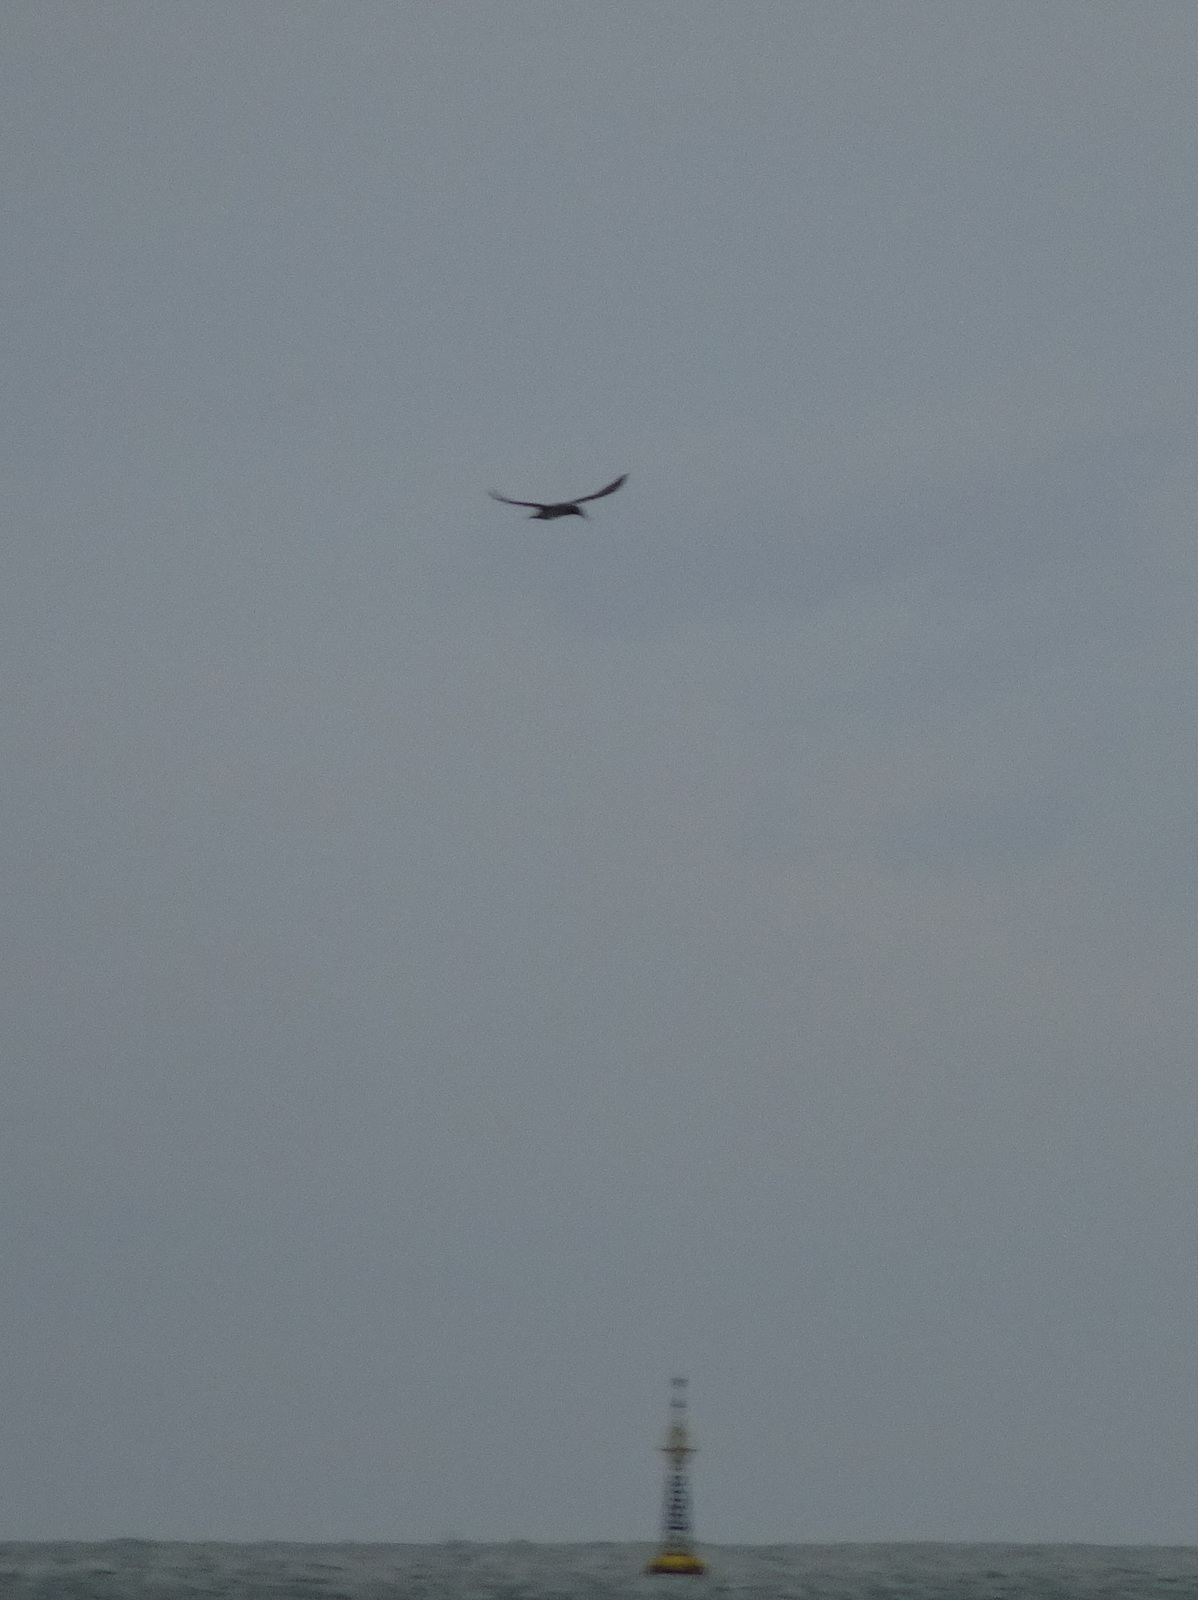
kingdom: Animalia
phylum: Chordata
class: Aves
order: Suliformes
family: Sulidae
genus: Morus
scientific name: Morus bassanus
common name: Northern gannet
